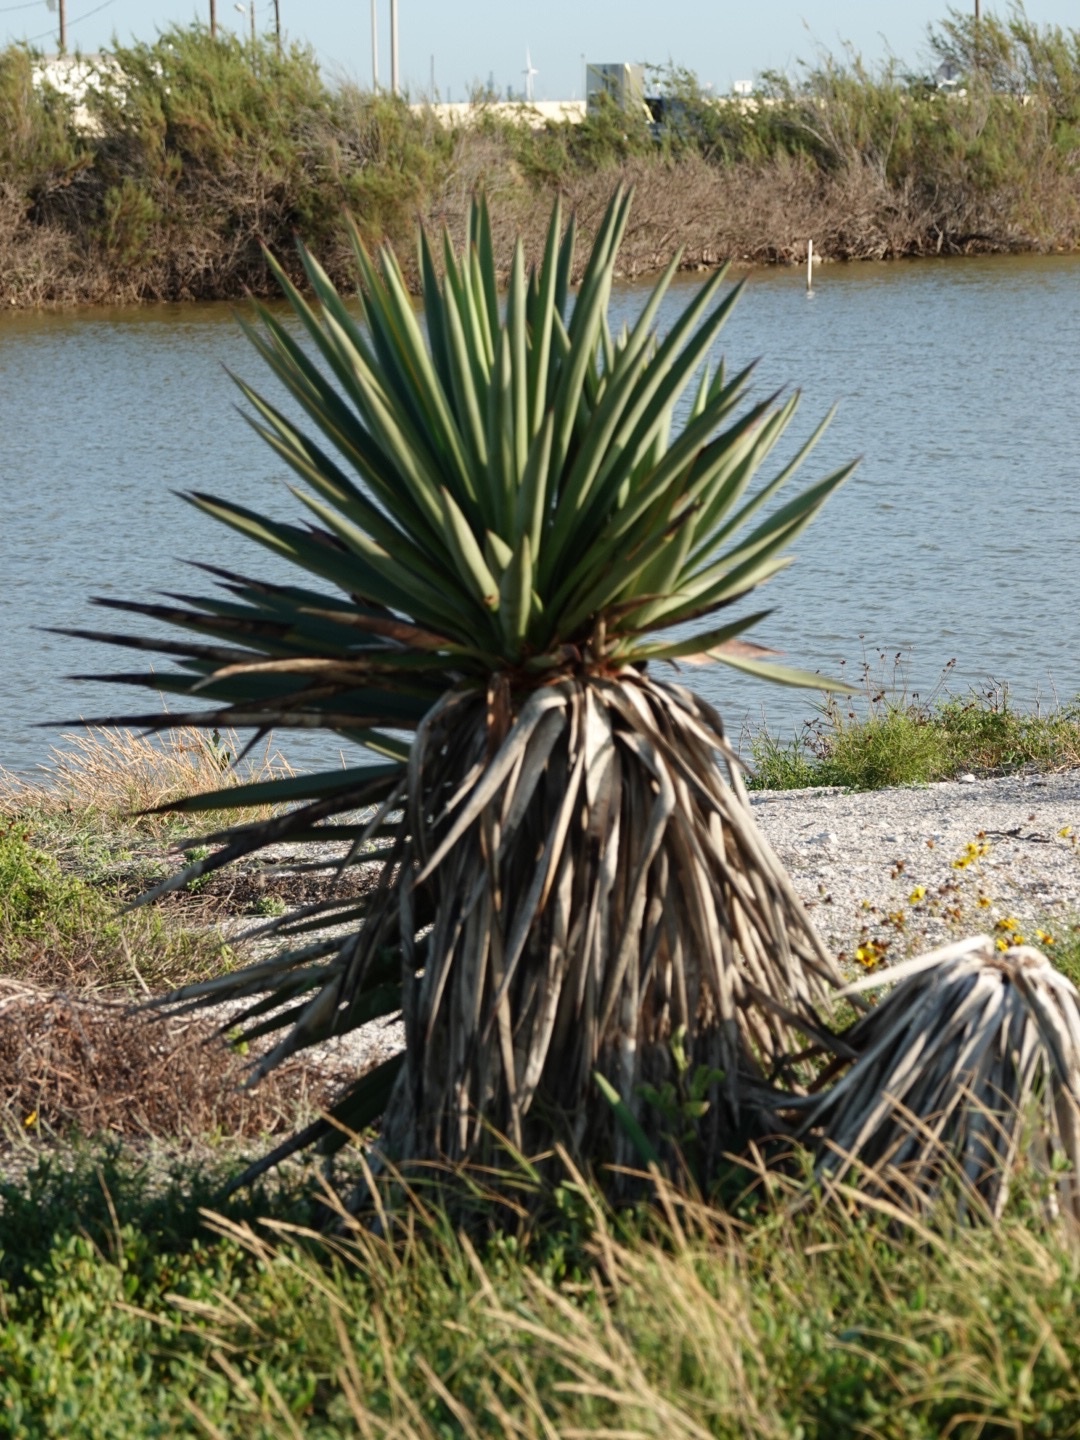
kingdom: Plantae
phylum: Tracheophyta
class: Liliopsida
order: Asparagales
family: Asparagaceae
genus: Yucca
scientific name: Yucca treculiana
